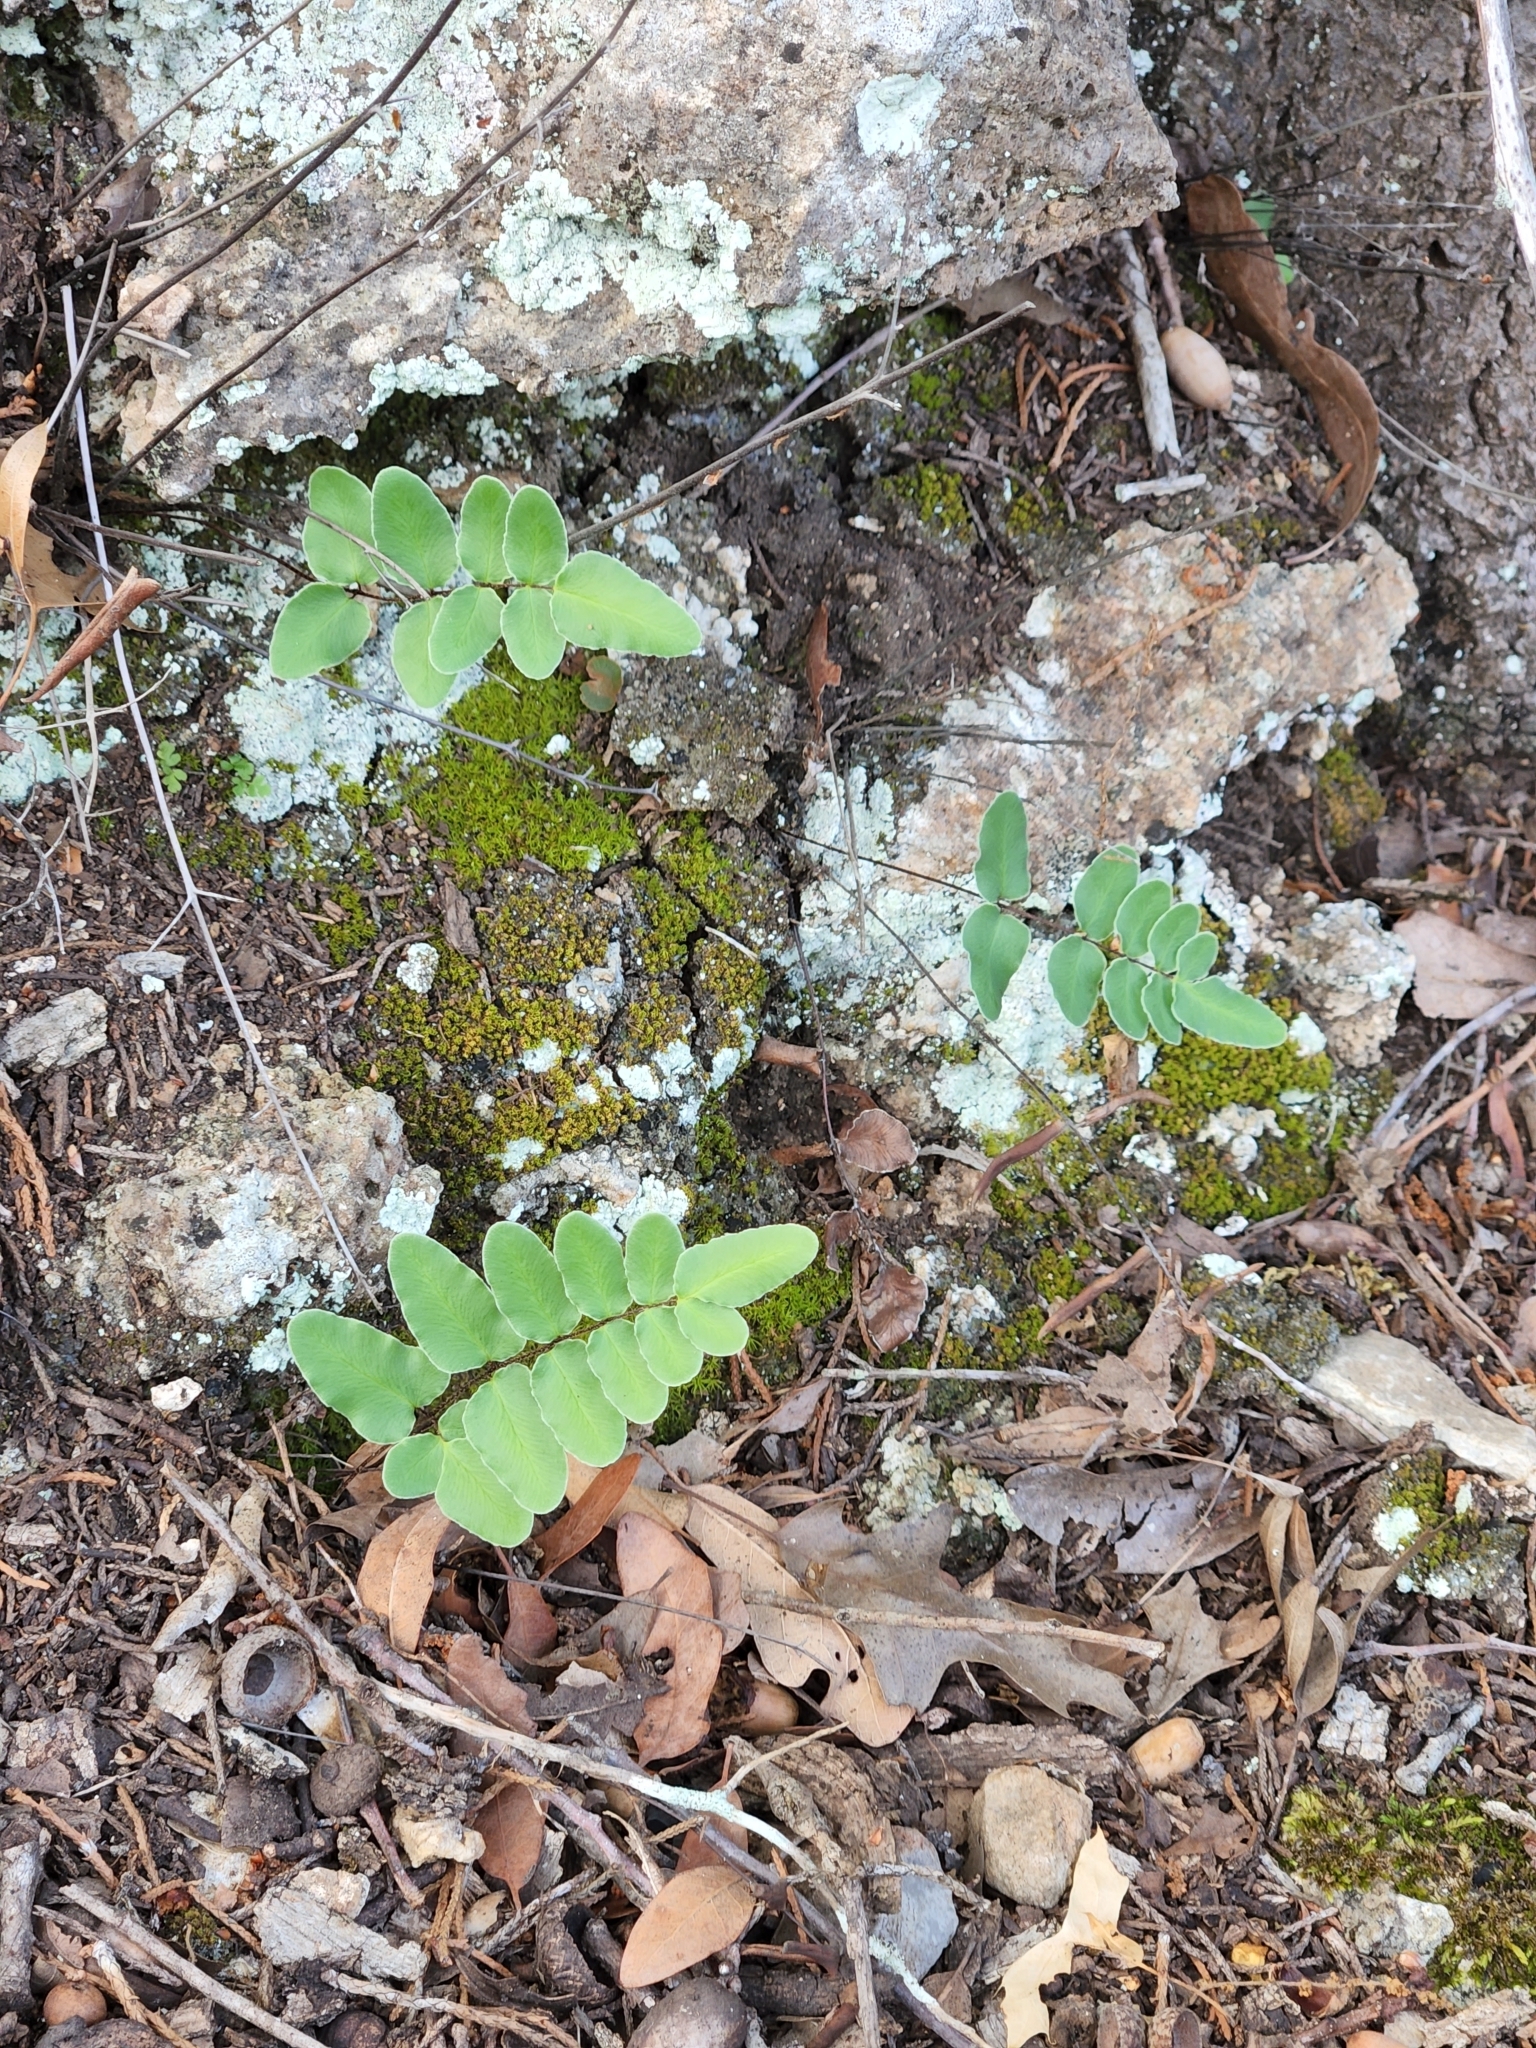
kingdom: Plantae
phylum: Tracheophyta
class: Polypodiopsida
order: Polypodiales
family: Pteridaceae
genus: Pellaea
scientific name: Pellaea atropurpurea
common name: Hairy cliffbrake
